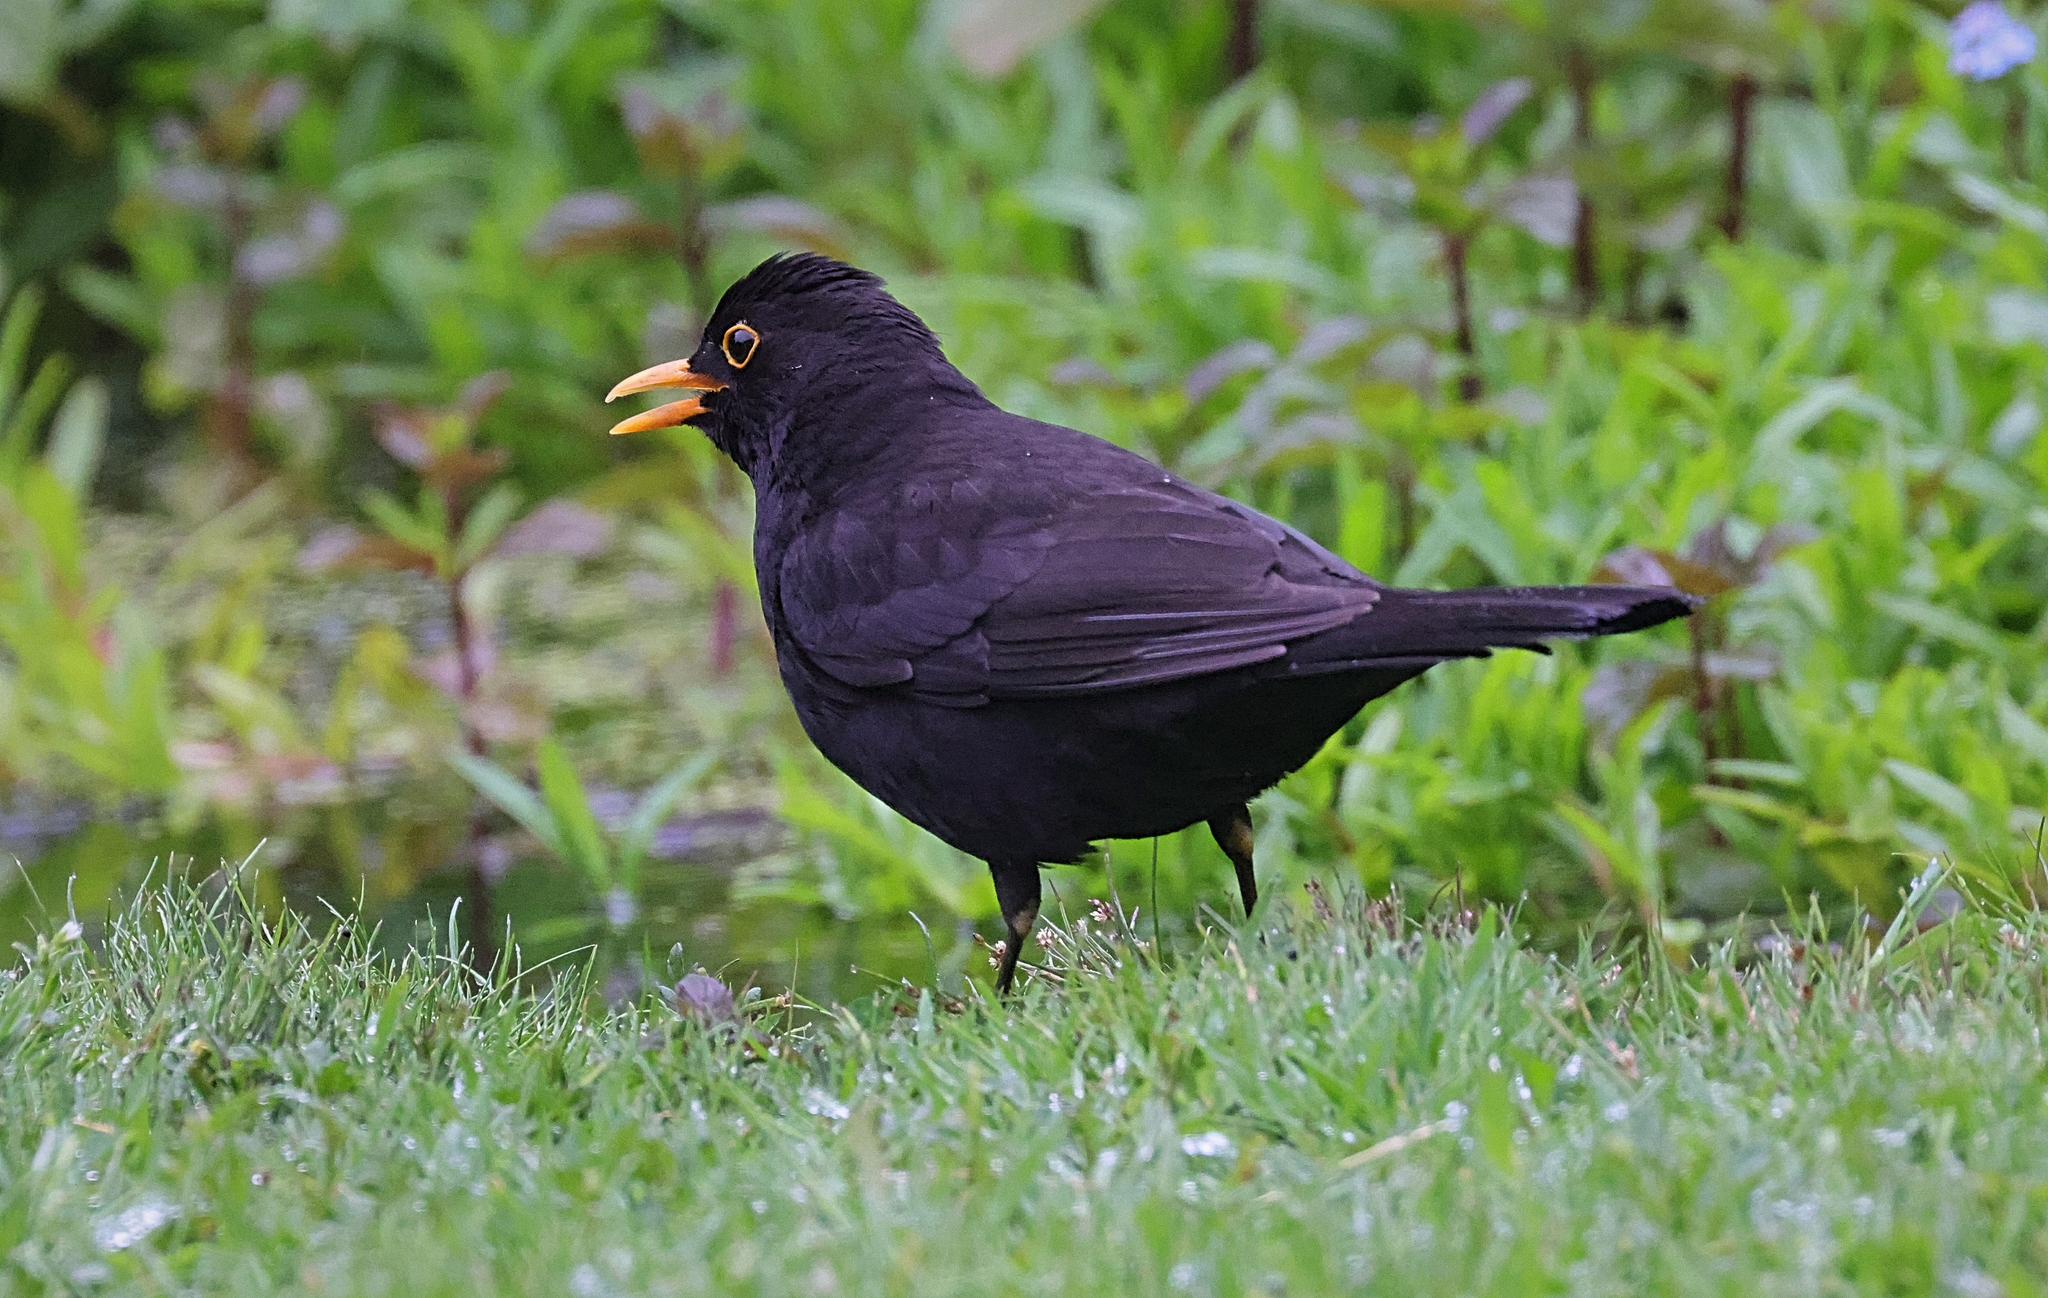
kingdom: Animalia
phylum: Chordata
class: Aves
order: Passeriformes
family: Turdidae
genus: Turdus
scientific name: Turdus merula
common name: Common blackbird
